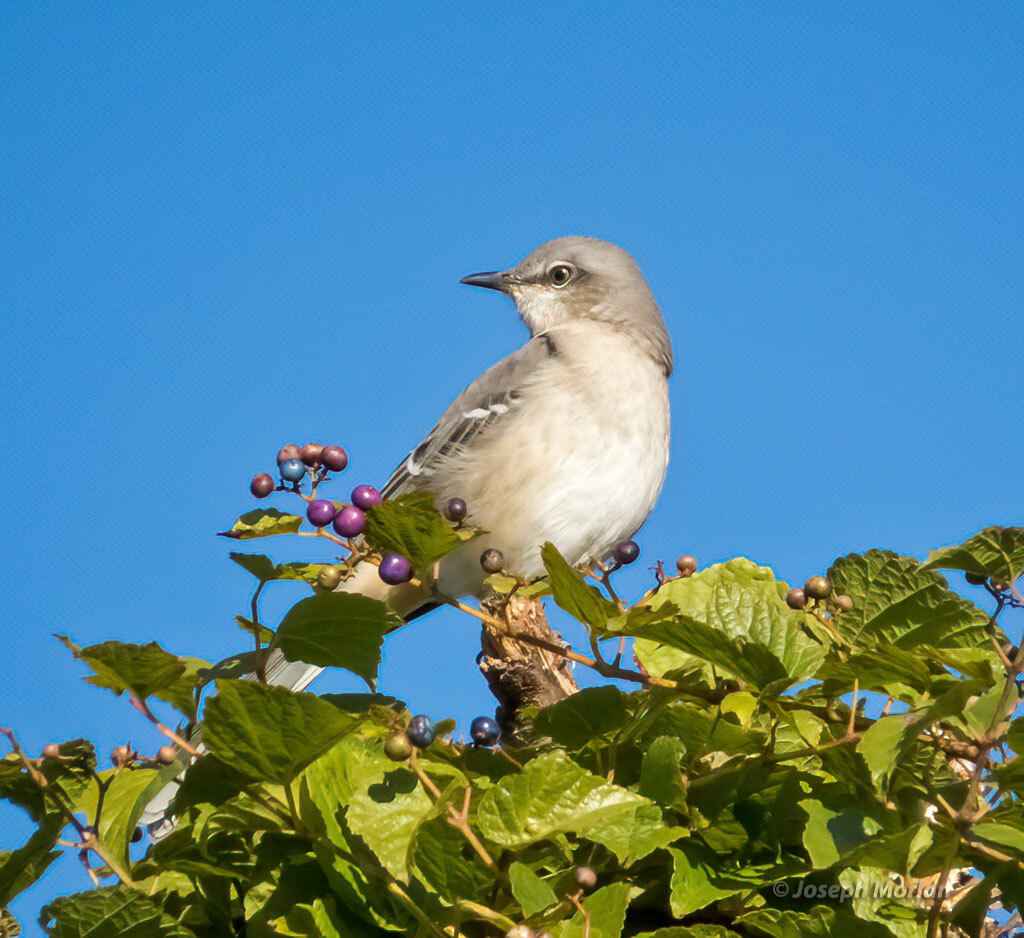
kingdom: Animalia
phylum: Chordata
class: Aves
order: Passeriformes
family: Mimidae
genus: Mimus
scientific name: Mimus polyglottos
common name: Northern mockingbird
